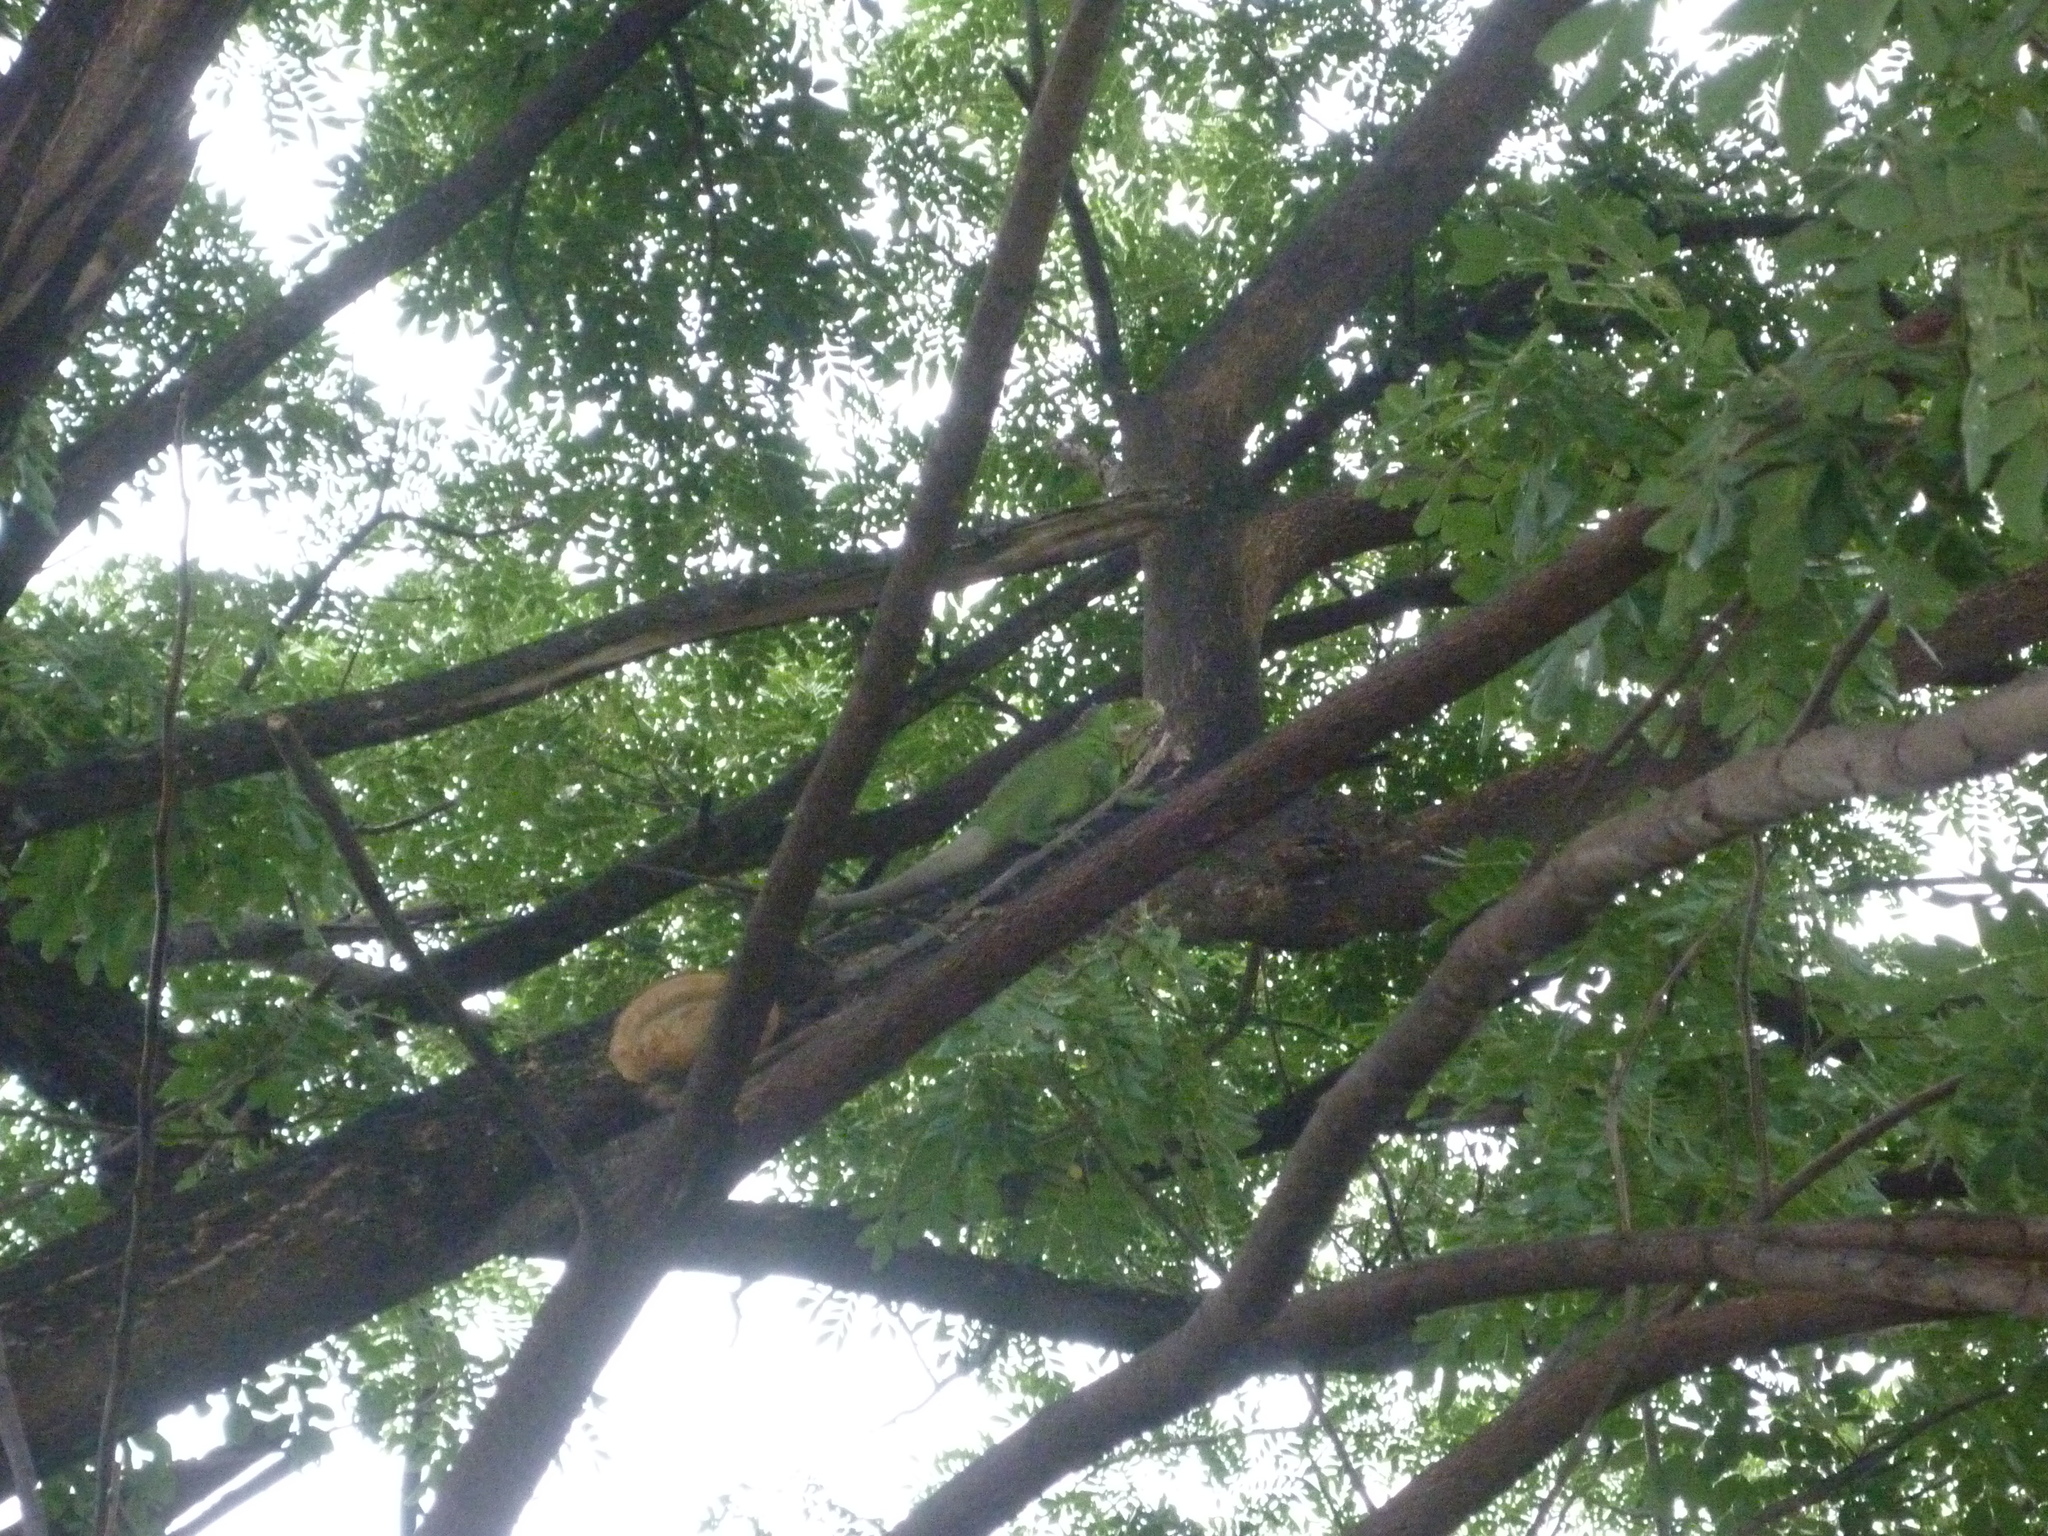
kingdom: Animalia
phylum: Chordata
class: Squamata
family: Iguanidae
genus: Iguana
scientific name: Iguana delicatissima
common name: West indian iguana
